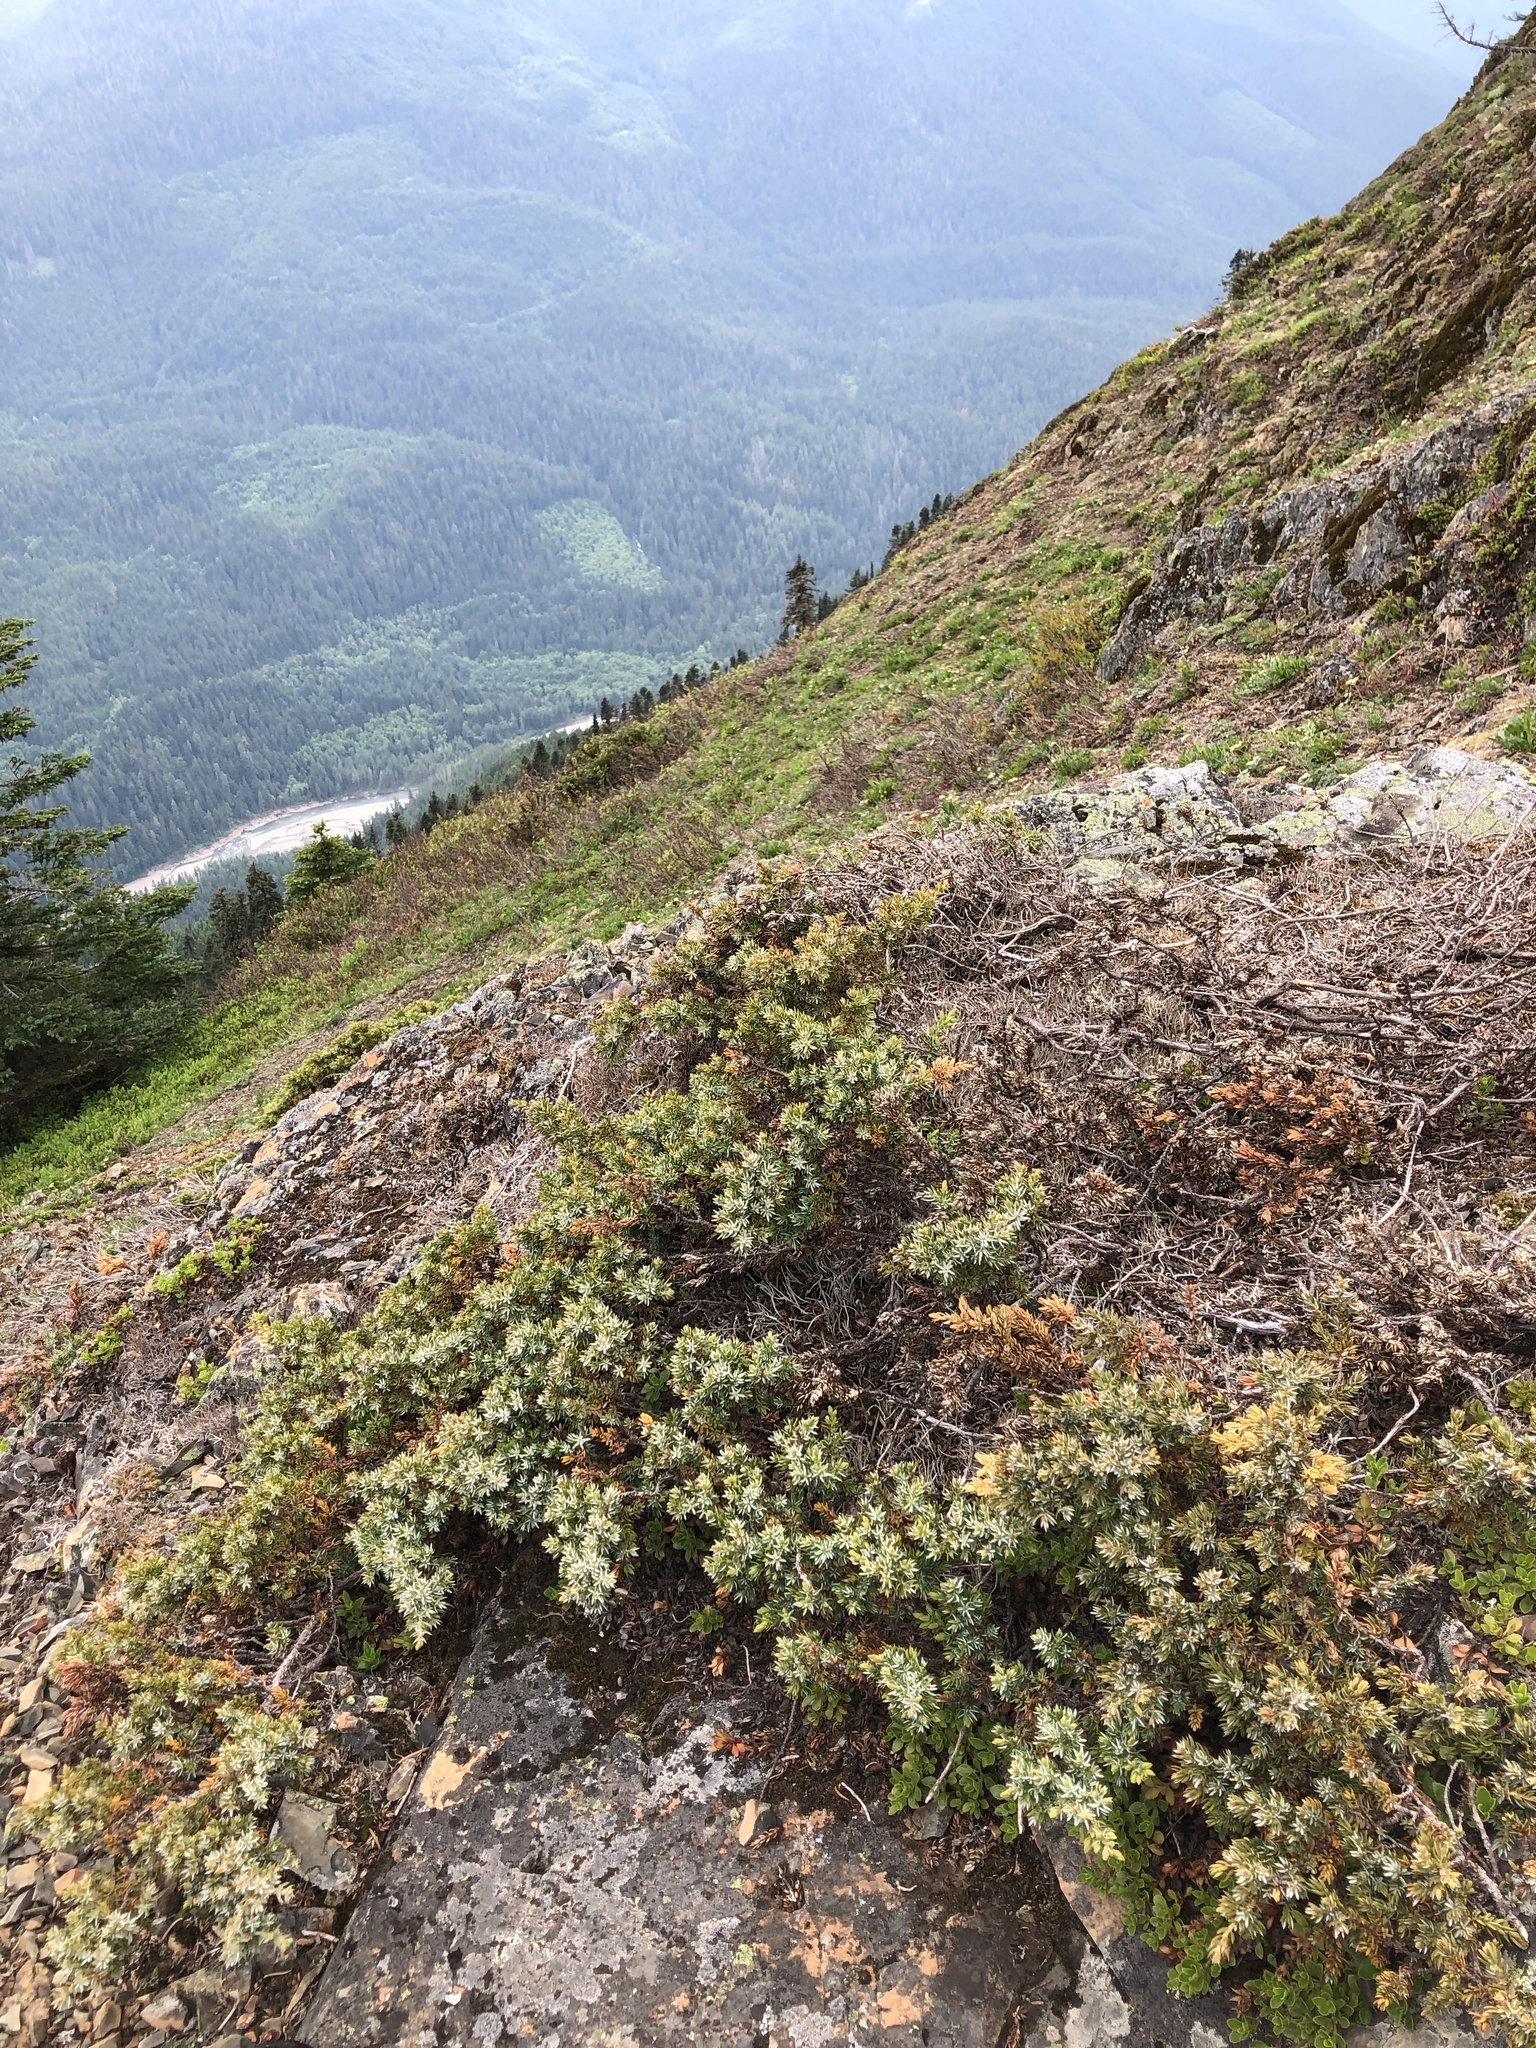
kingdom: Plantae
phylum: Tracheophyta
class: Pinopsida
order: Pinales
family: Cupressaceae
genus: Juniperus
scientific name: Juniperus communis
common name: Common juniper
